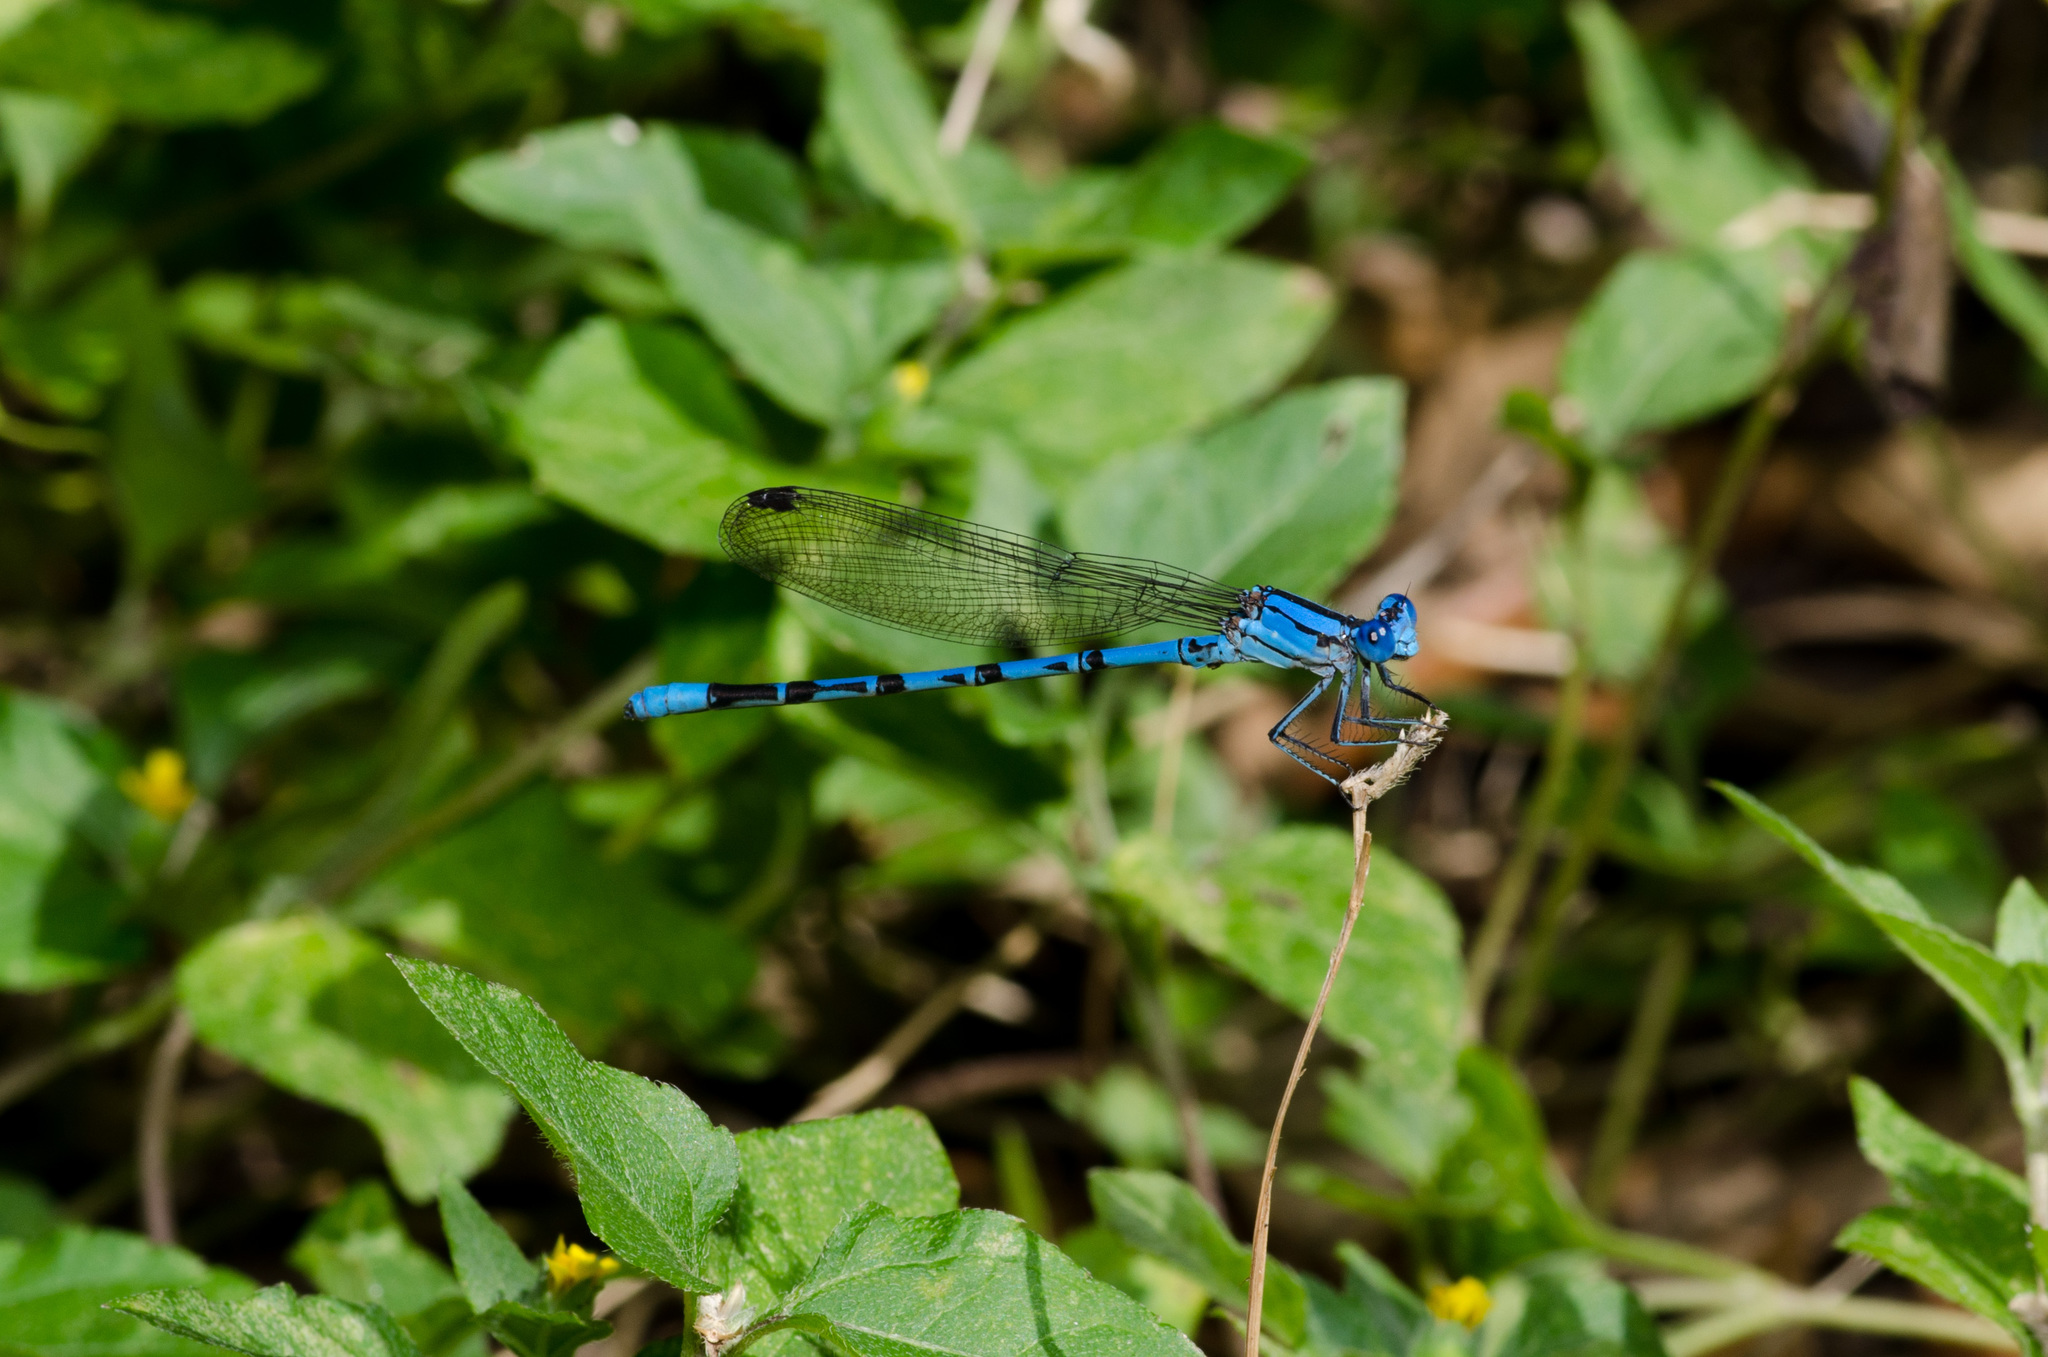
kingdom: Animalia
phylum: Arthropoda
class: Insecta
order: Odonata
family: Coenagrionidae
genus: Argia
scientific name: Argia funebris
